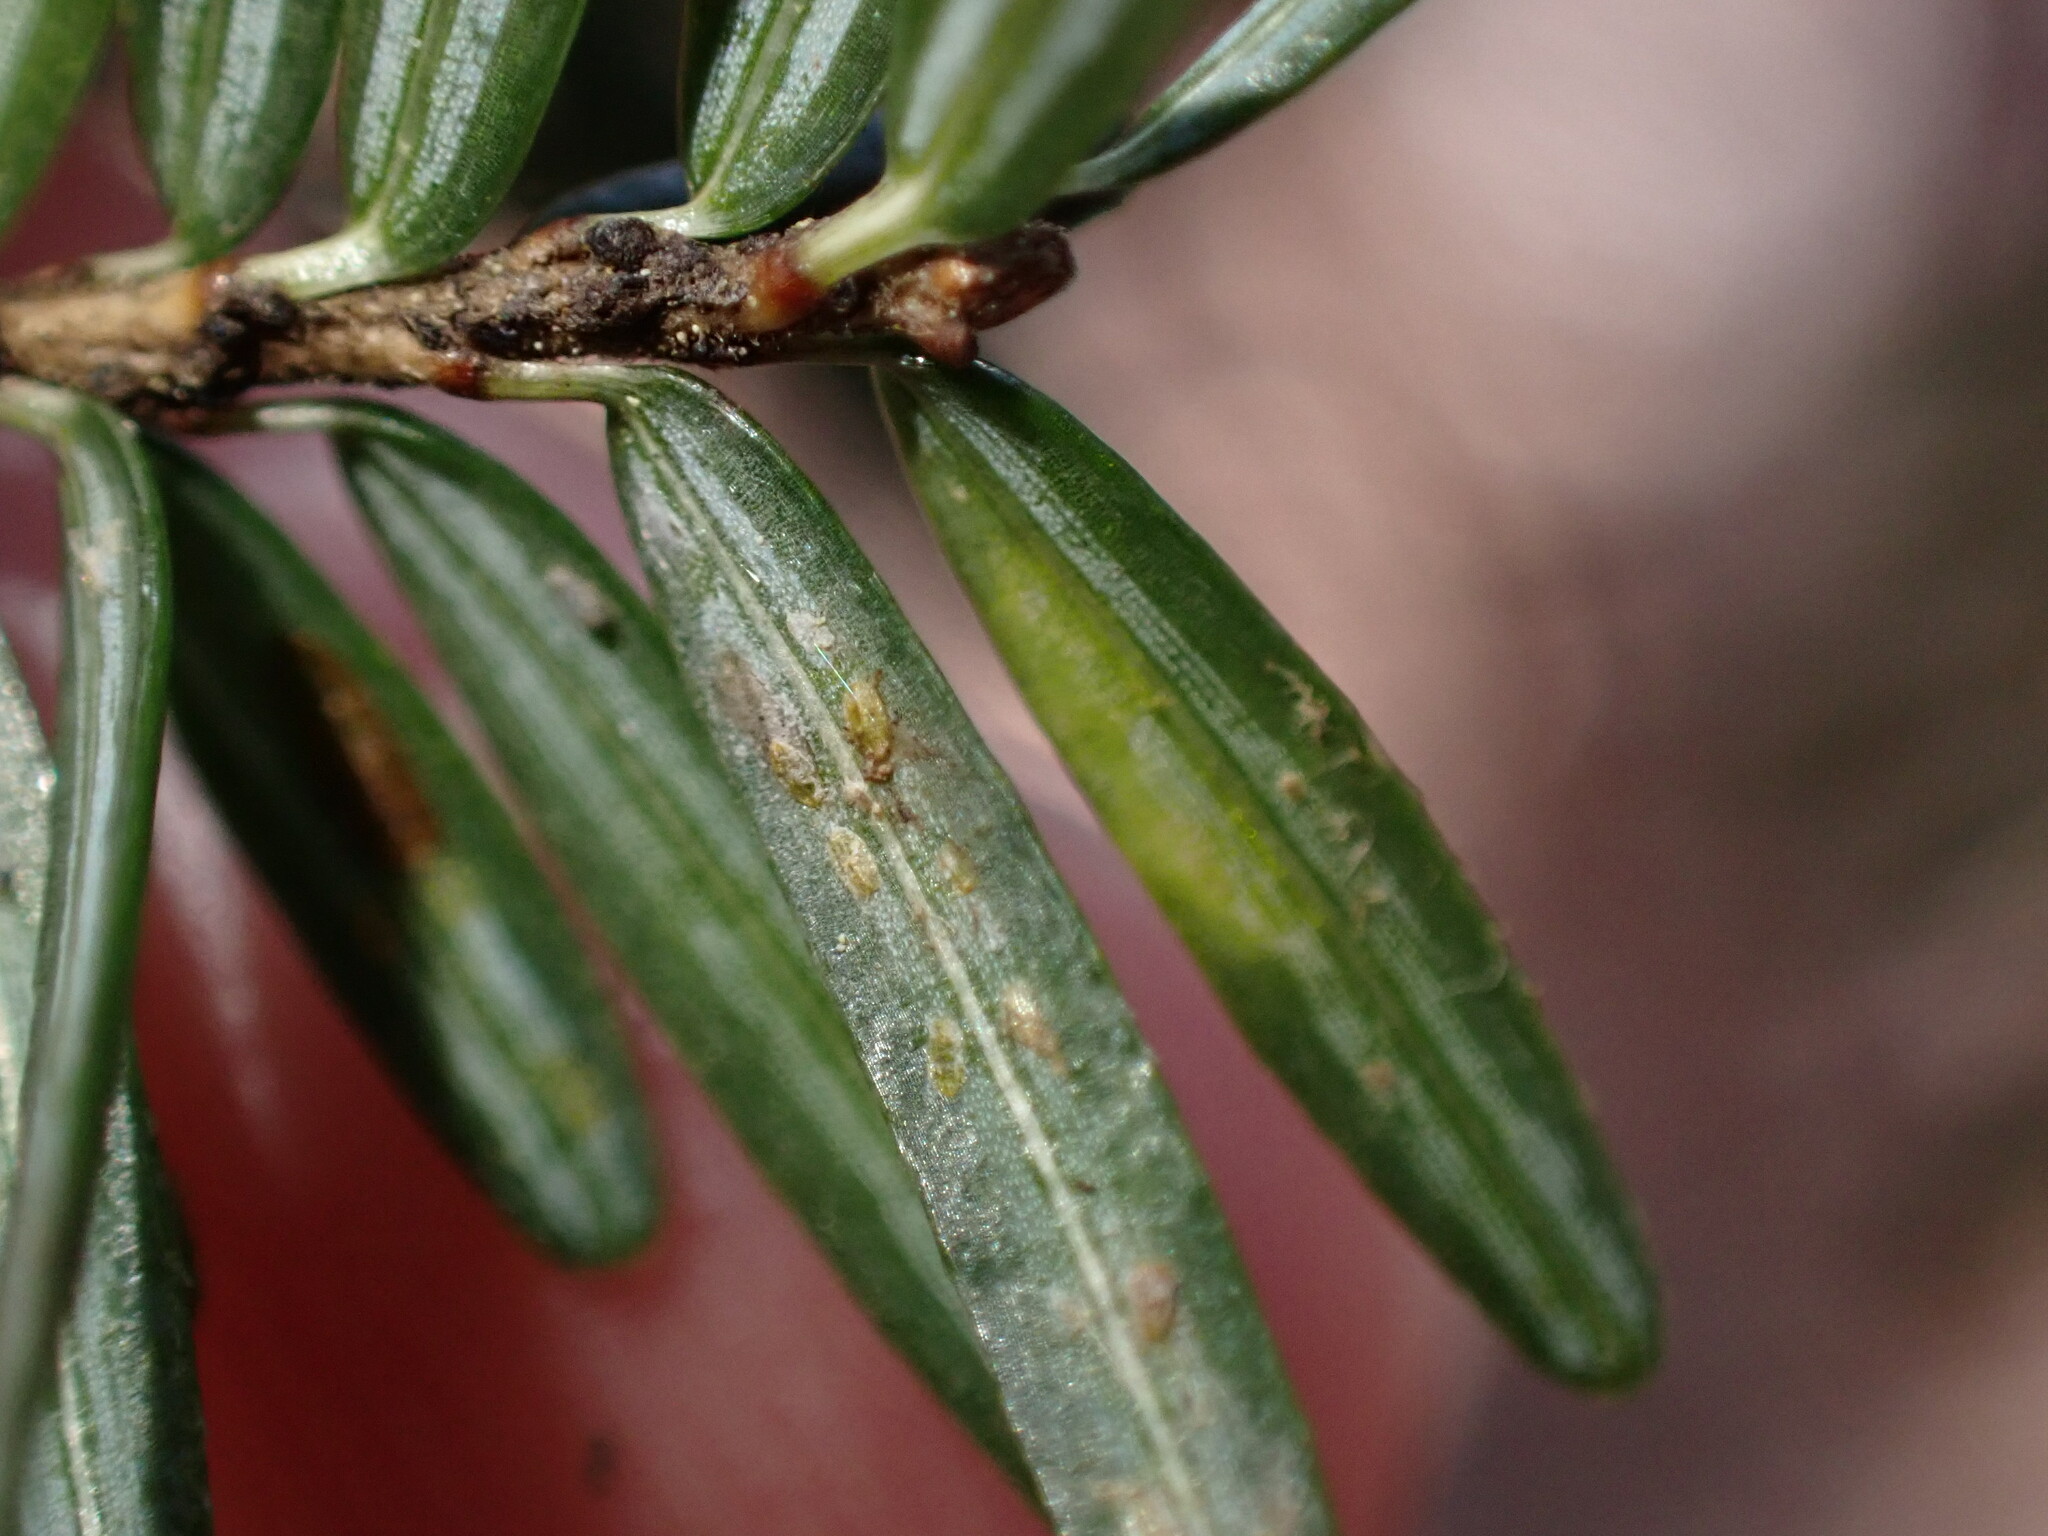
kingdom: Animalia
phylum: Arthropoda
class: Insecta
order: Hemiptera
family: Diaspididae
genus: Fiorinia
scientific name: Fiorinia externa
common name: Elongate hemlock scale
